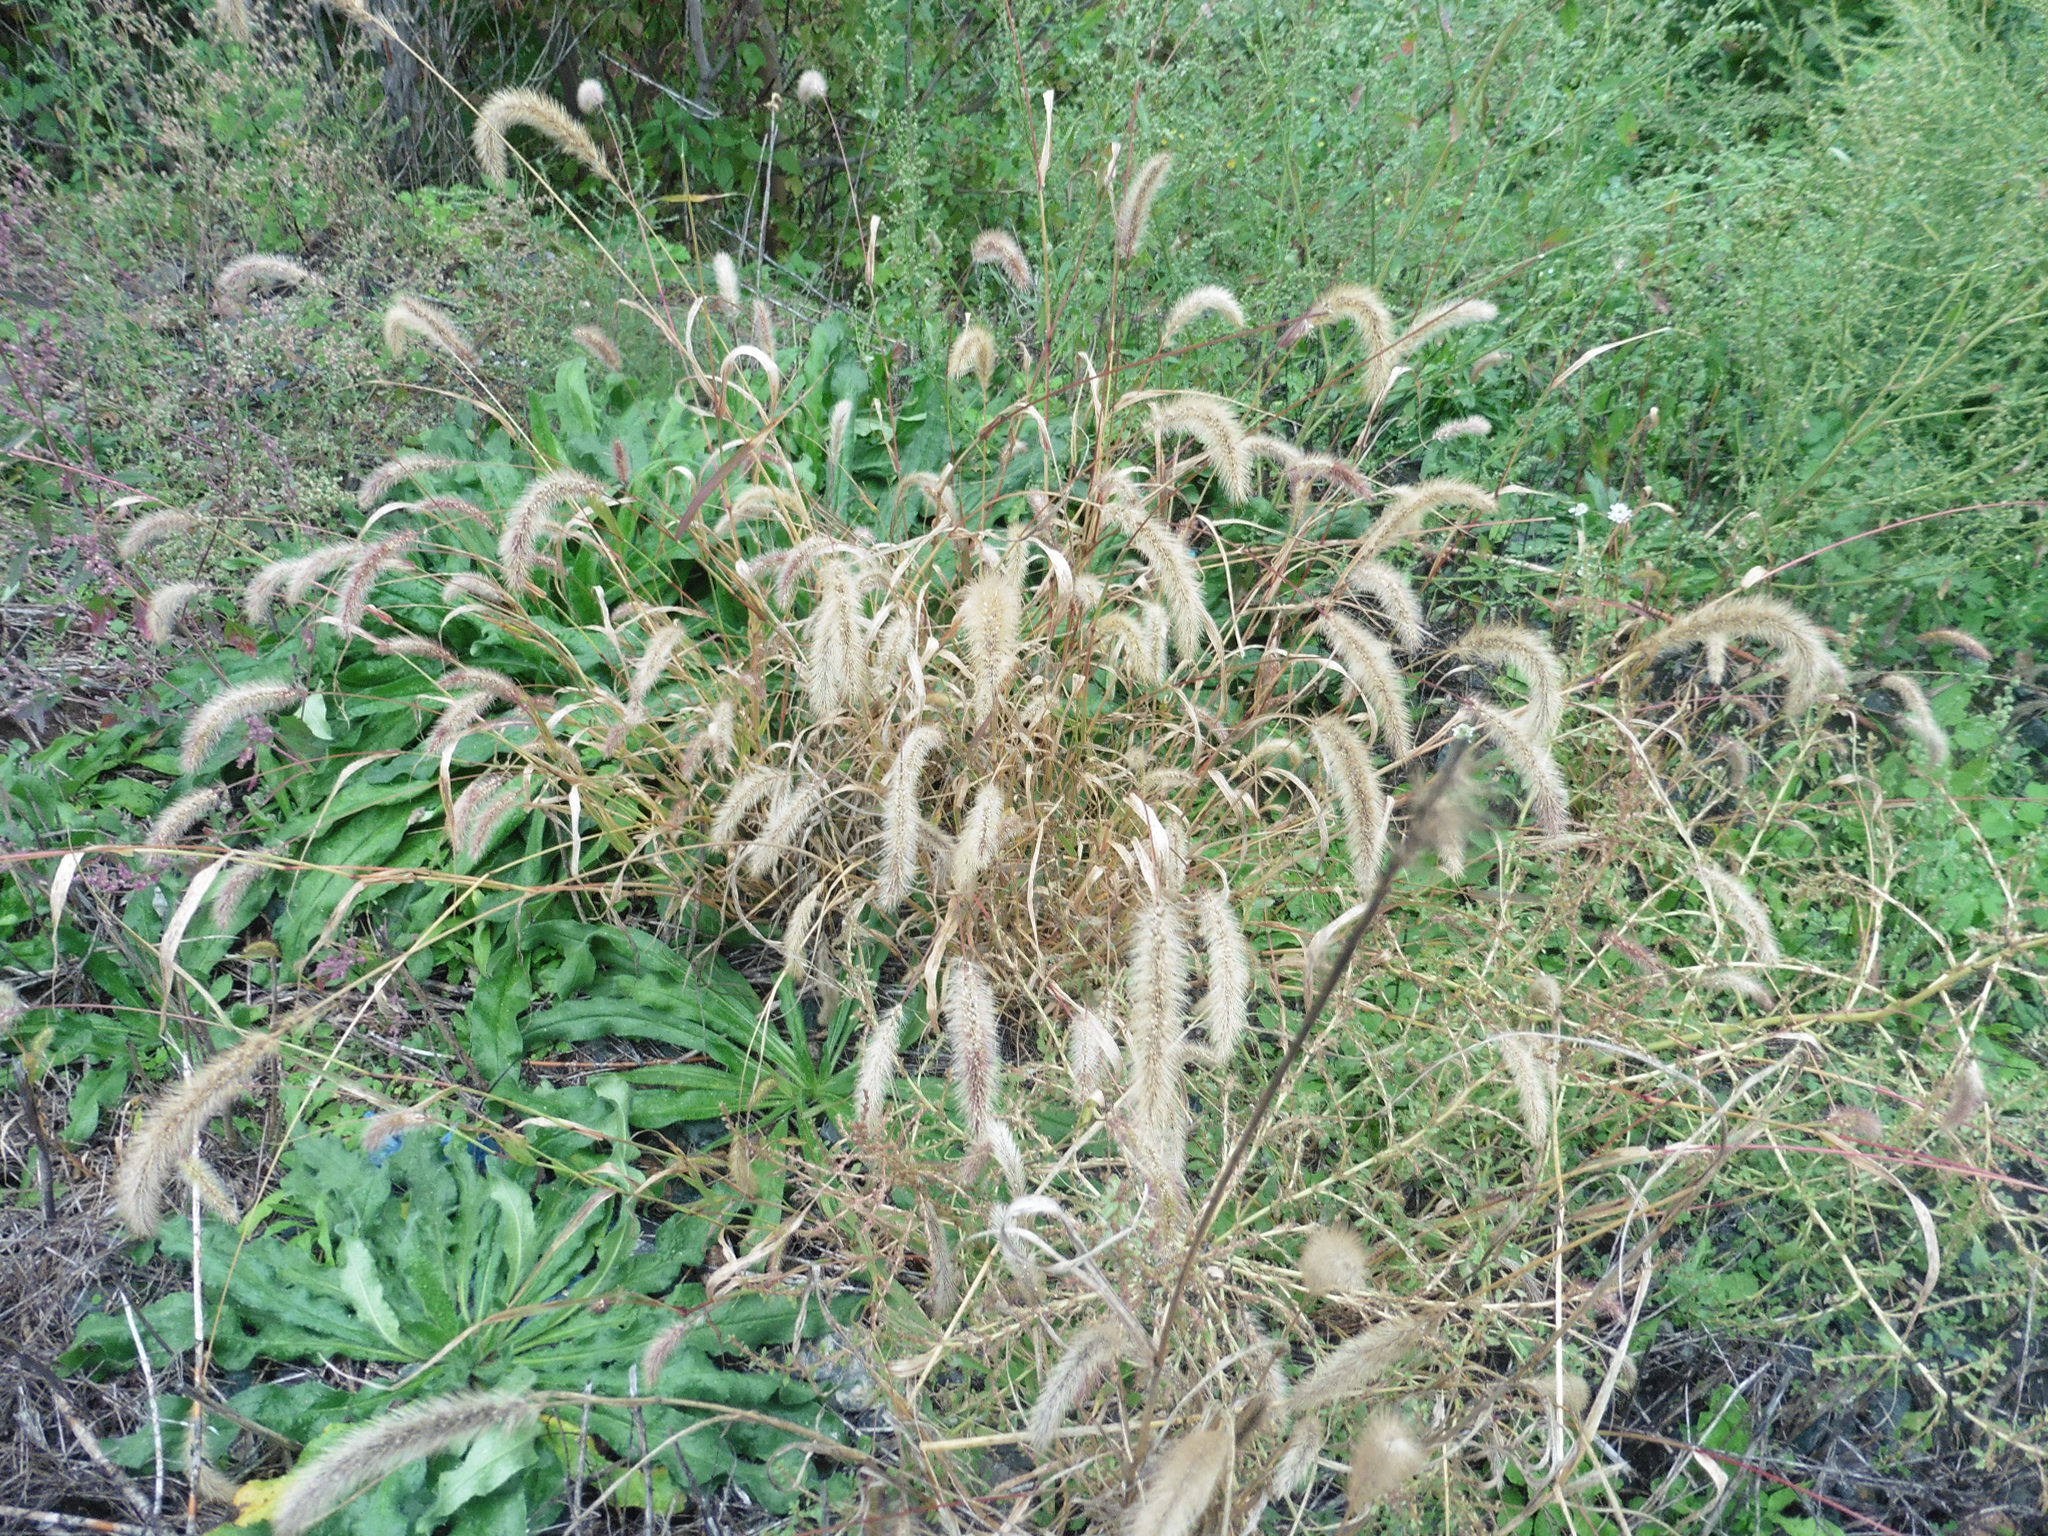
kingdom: Plantae
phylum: Tracheophyta
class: Liliopsida
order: Poales
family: Poaceae
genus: Setaria
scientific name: Setaria viridis
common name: Green bristlegrass
